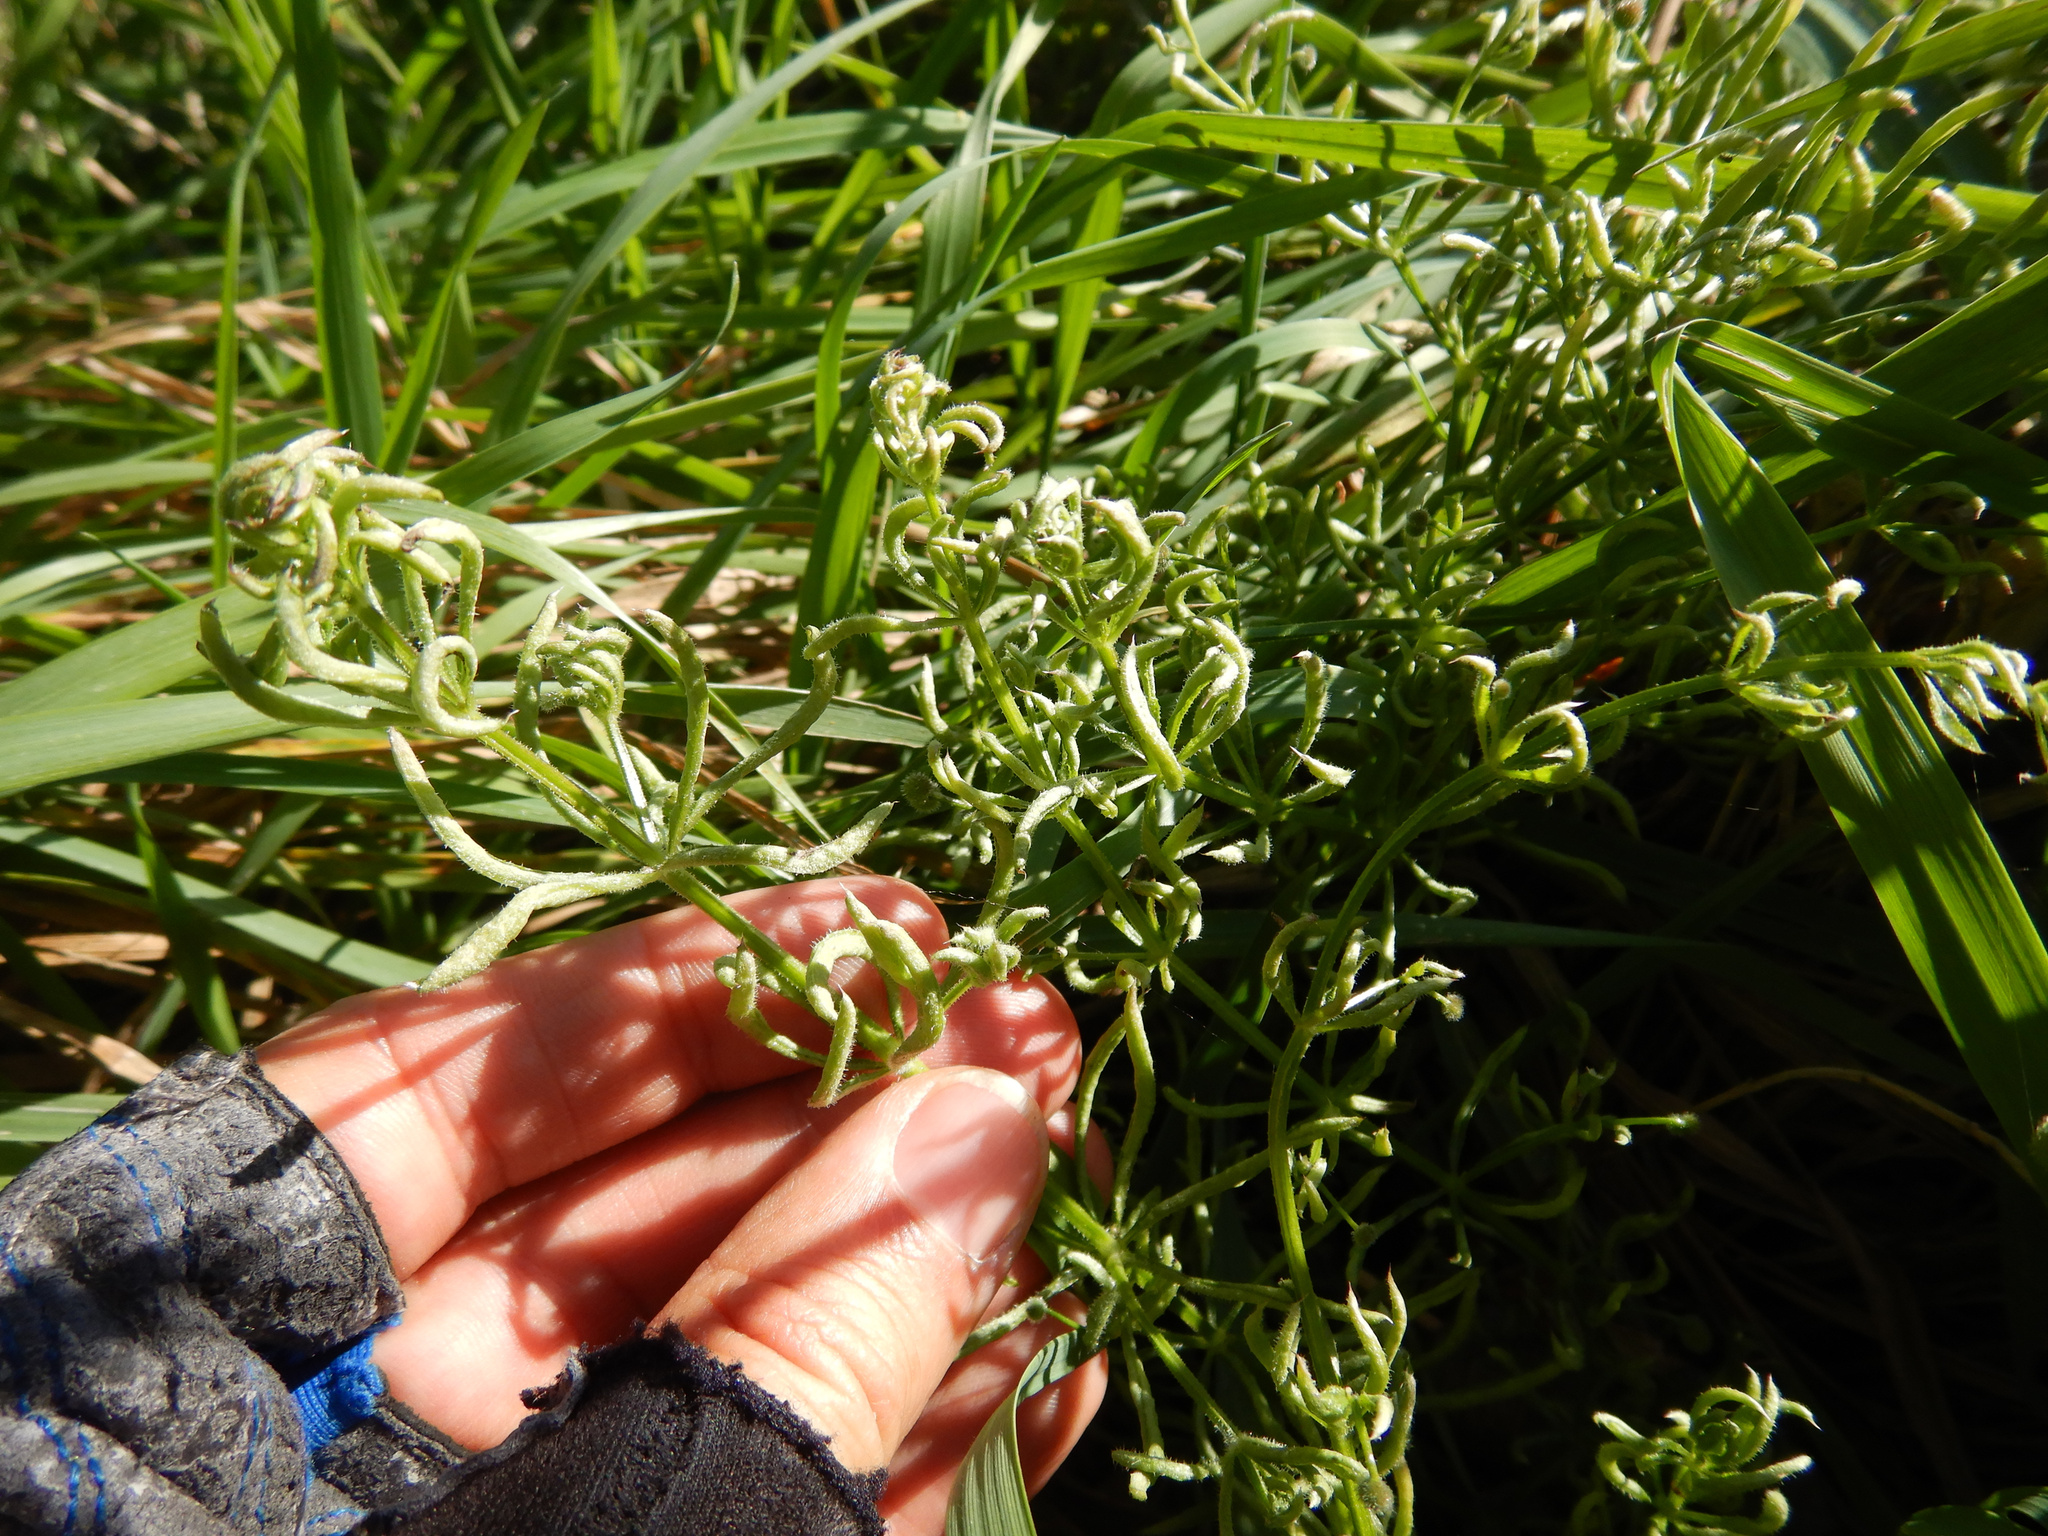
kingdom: Plantae
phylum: Tracheophyta
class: Magnoliopsida
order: Gentianales
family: Rubiaceae
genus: Galium
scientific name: Galium aparine
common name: Cleavers
